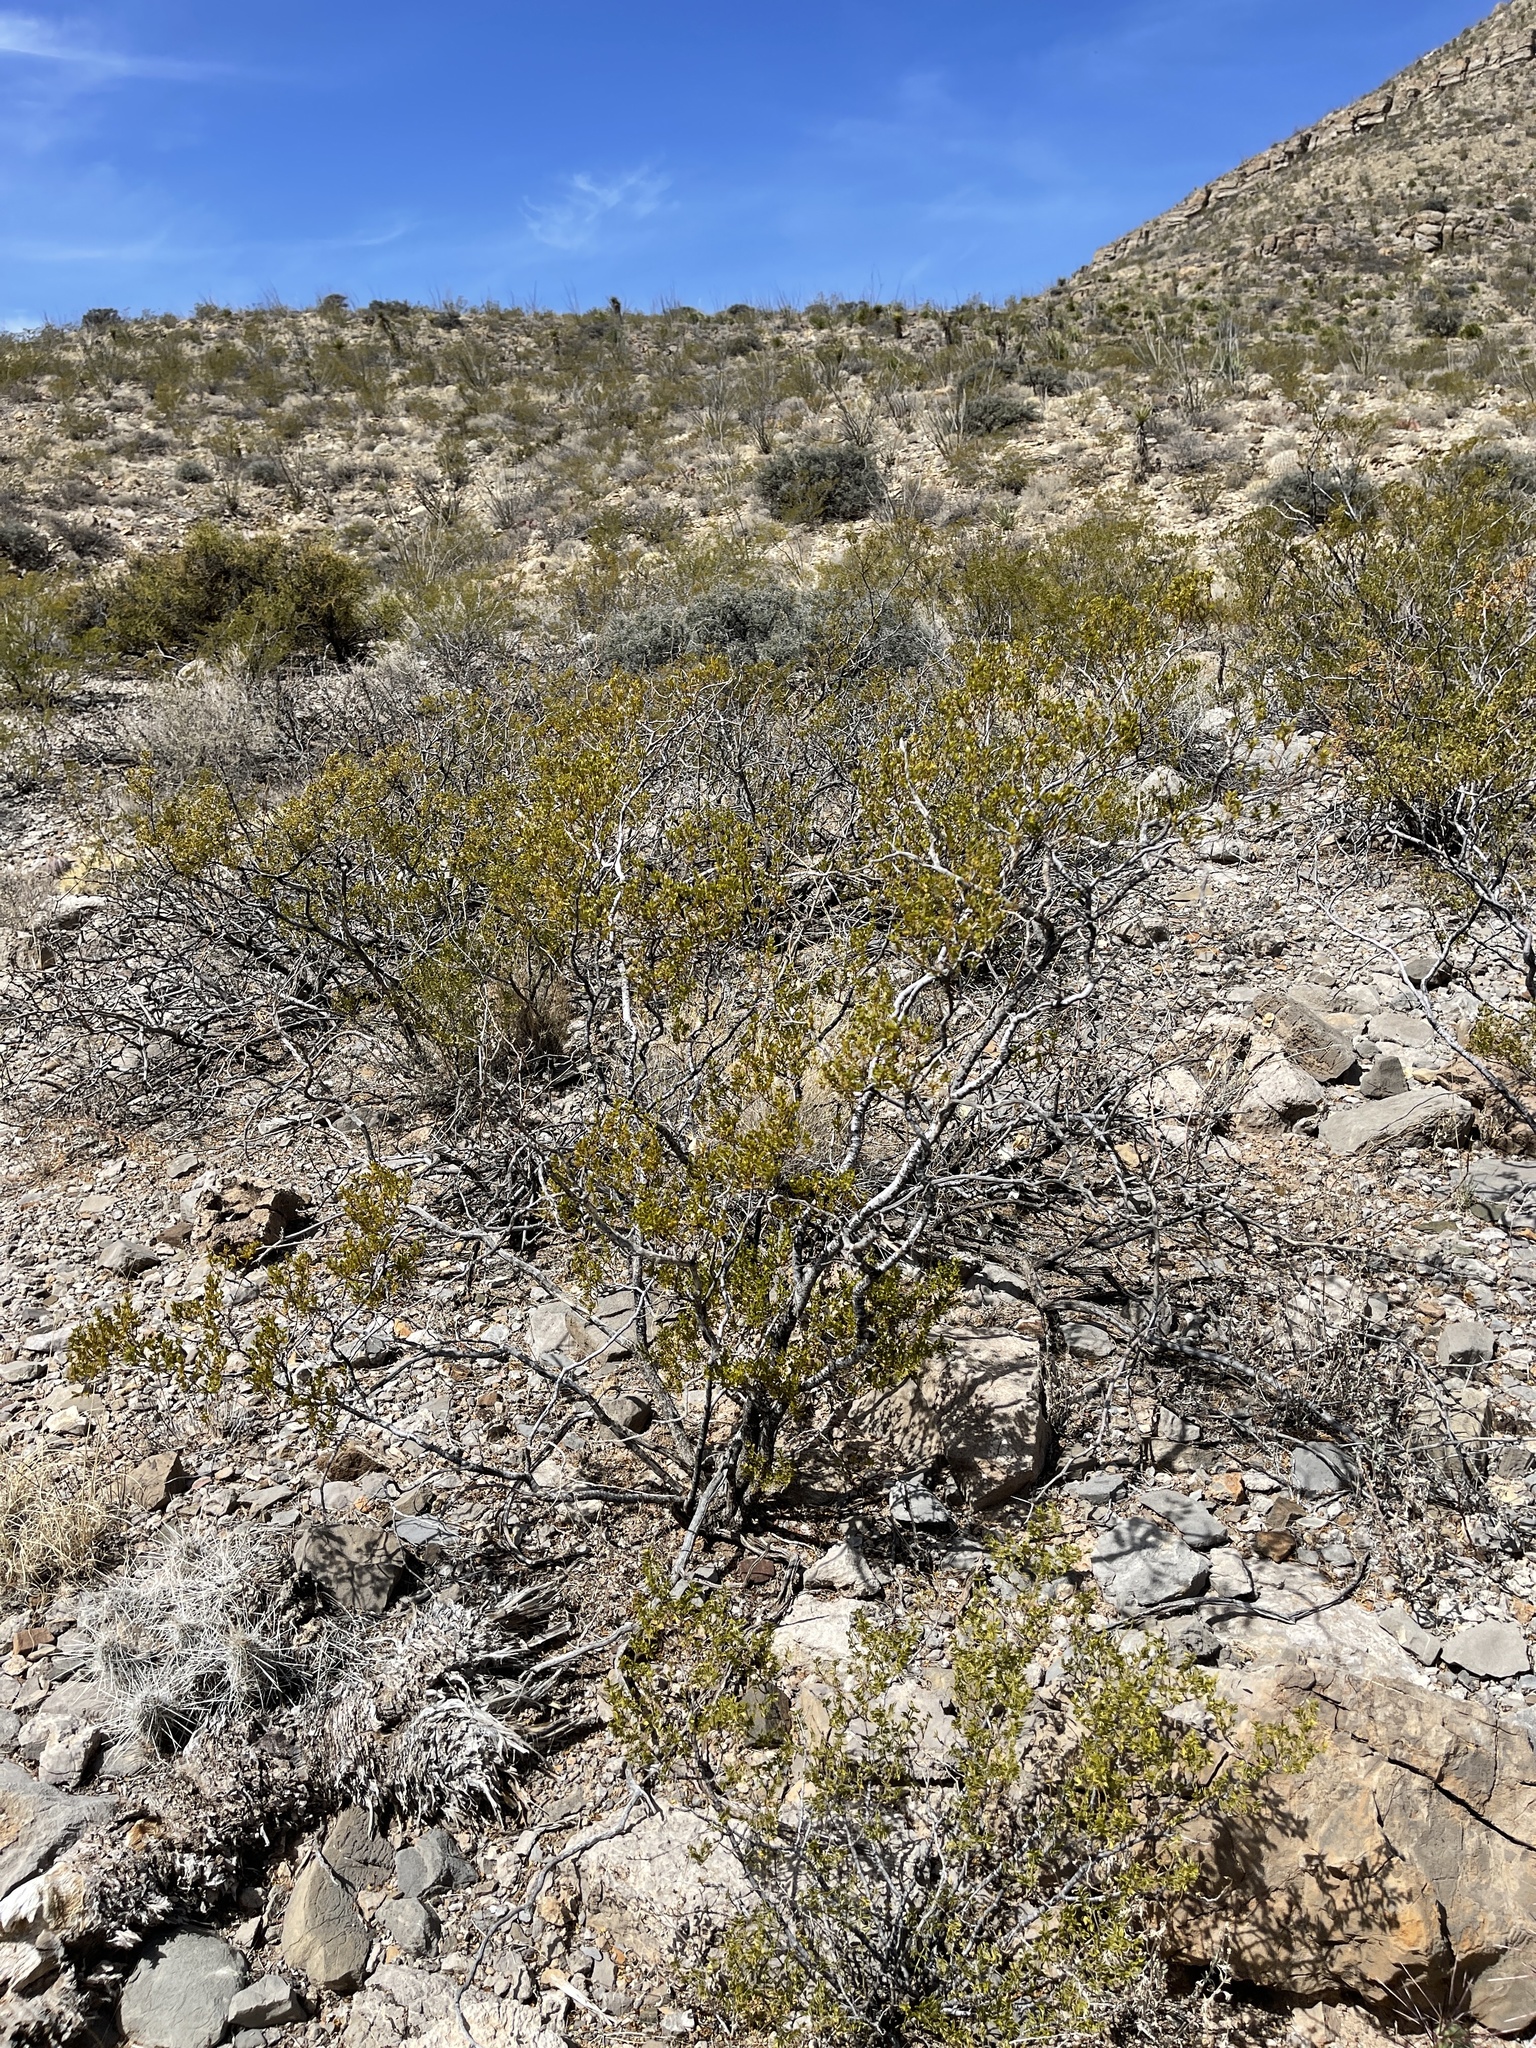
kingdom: Plantae
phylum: Tracheophyta
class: Magnoliopsida
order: Zygophyllales
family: Zygophyllaceae
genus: Larrea
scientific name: Larrea tridentata
